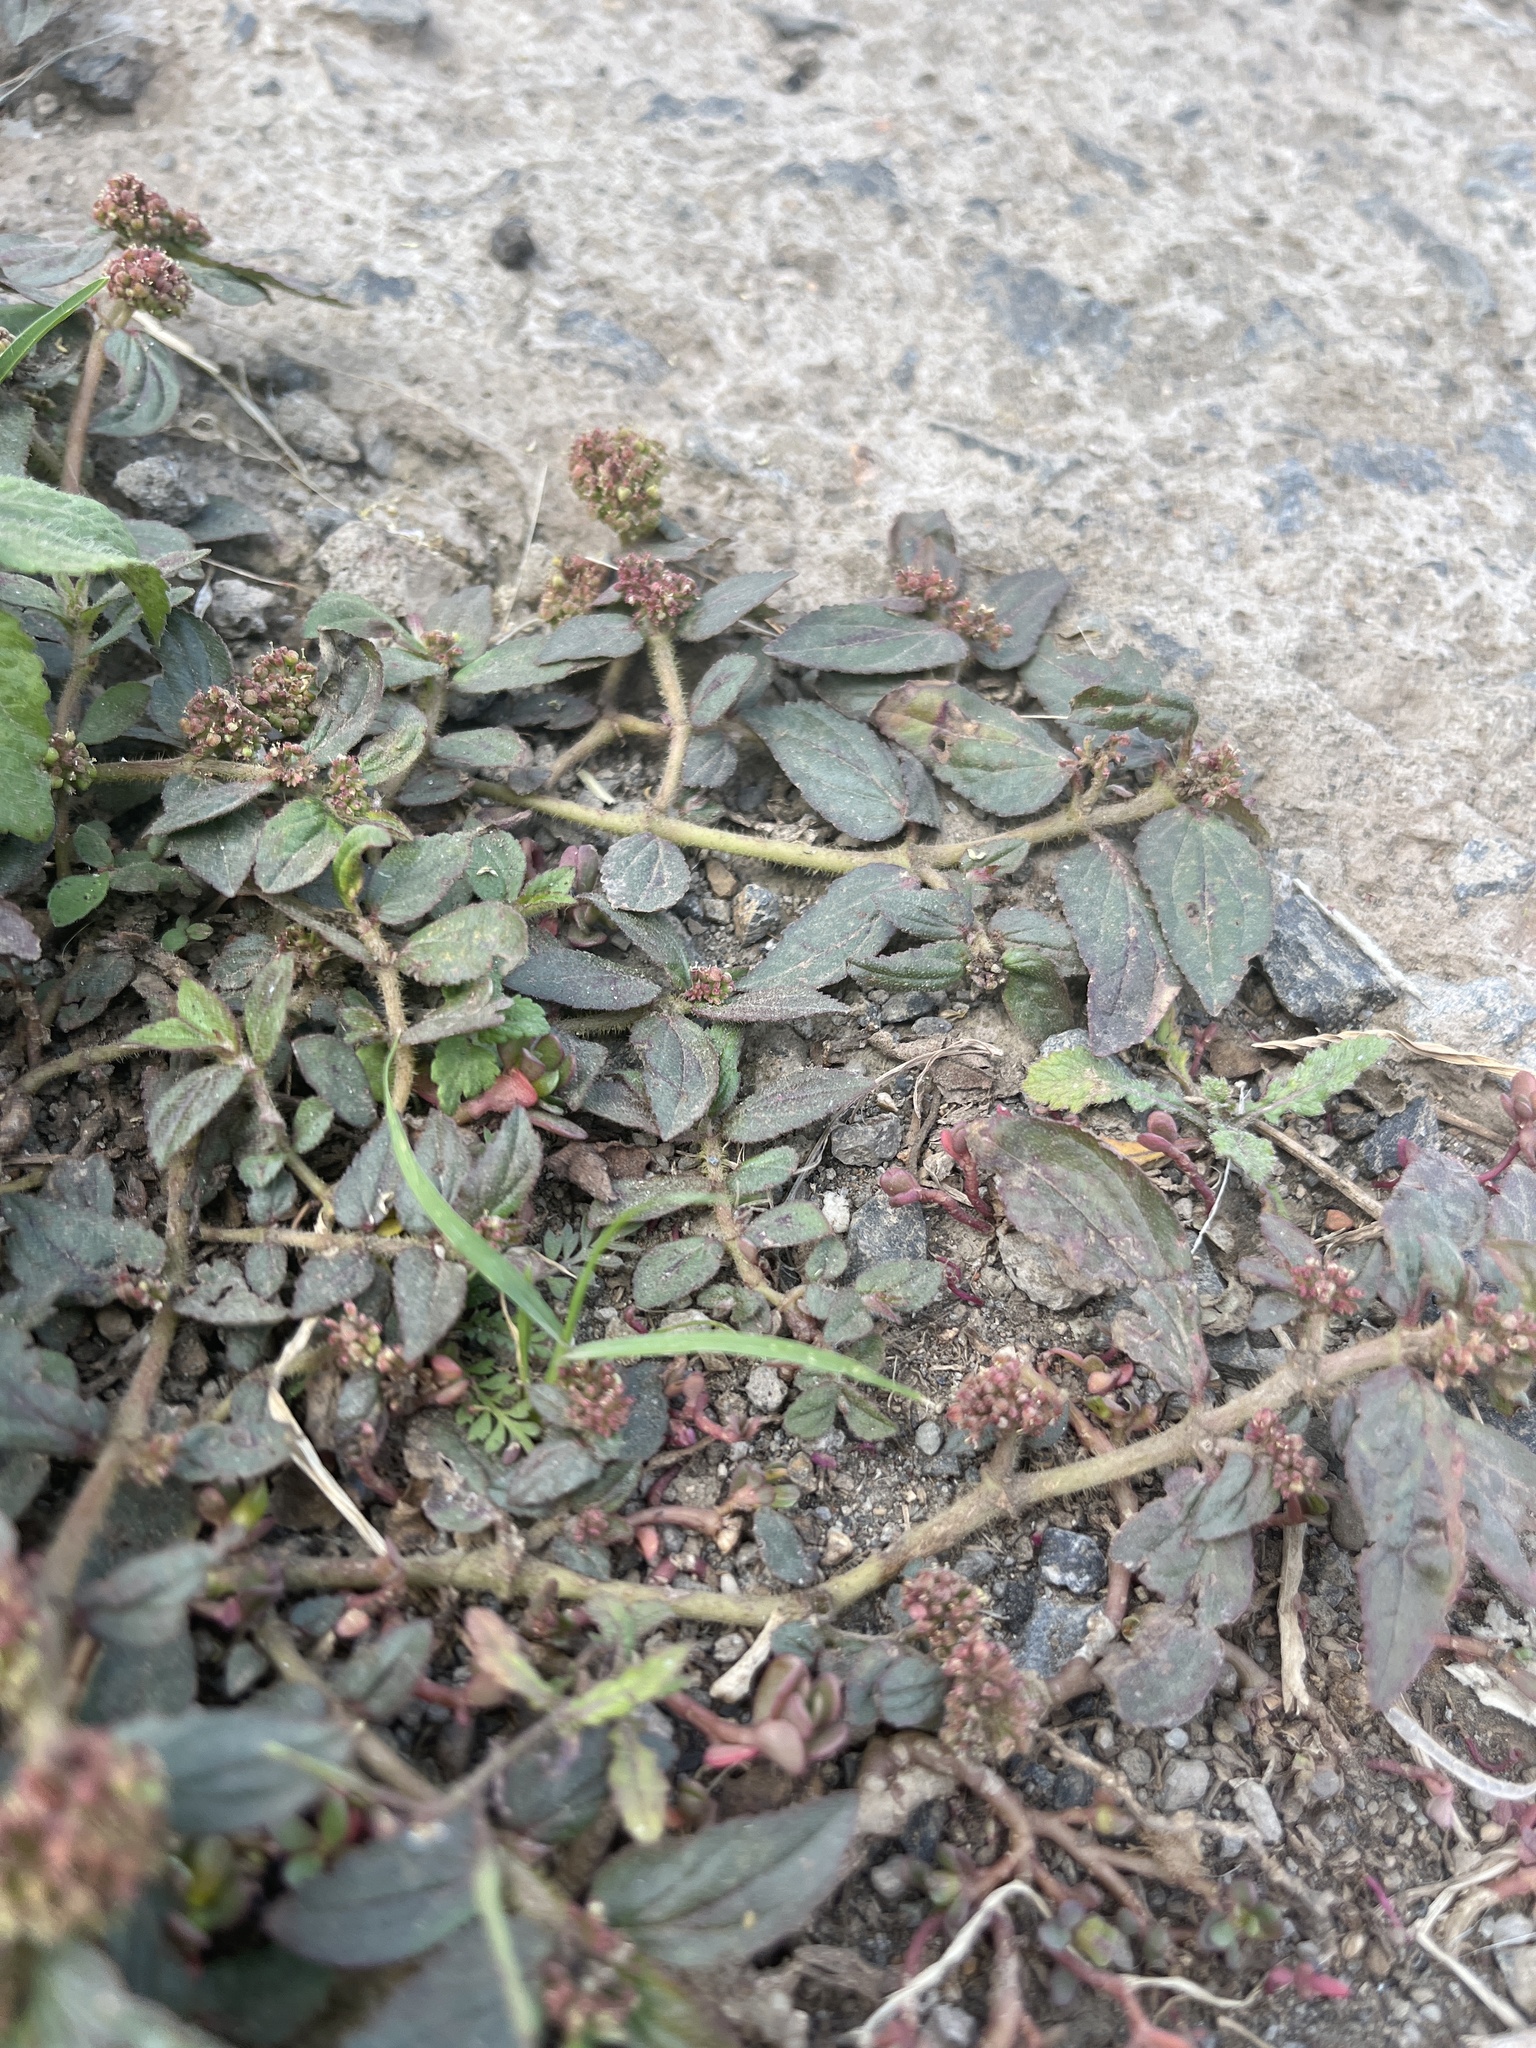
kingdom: Plantae
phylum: Tracheophyta
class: Magnoliopsida
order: Malpighiales
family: Euphorbiaceae
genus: Euphorbia
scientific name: Euphorbia hirta
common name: Pillpod sandmat
